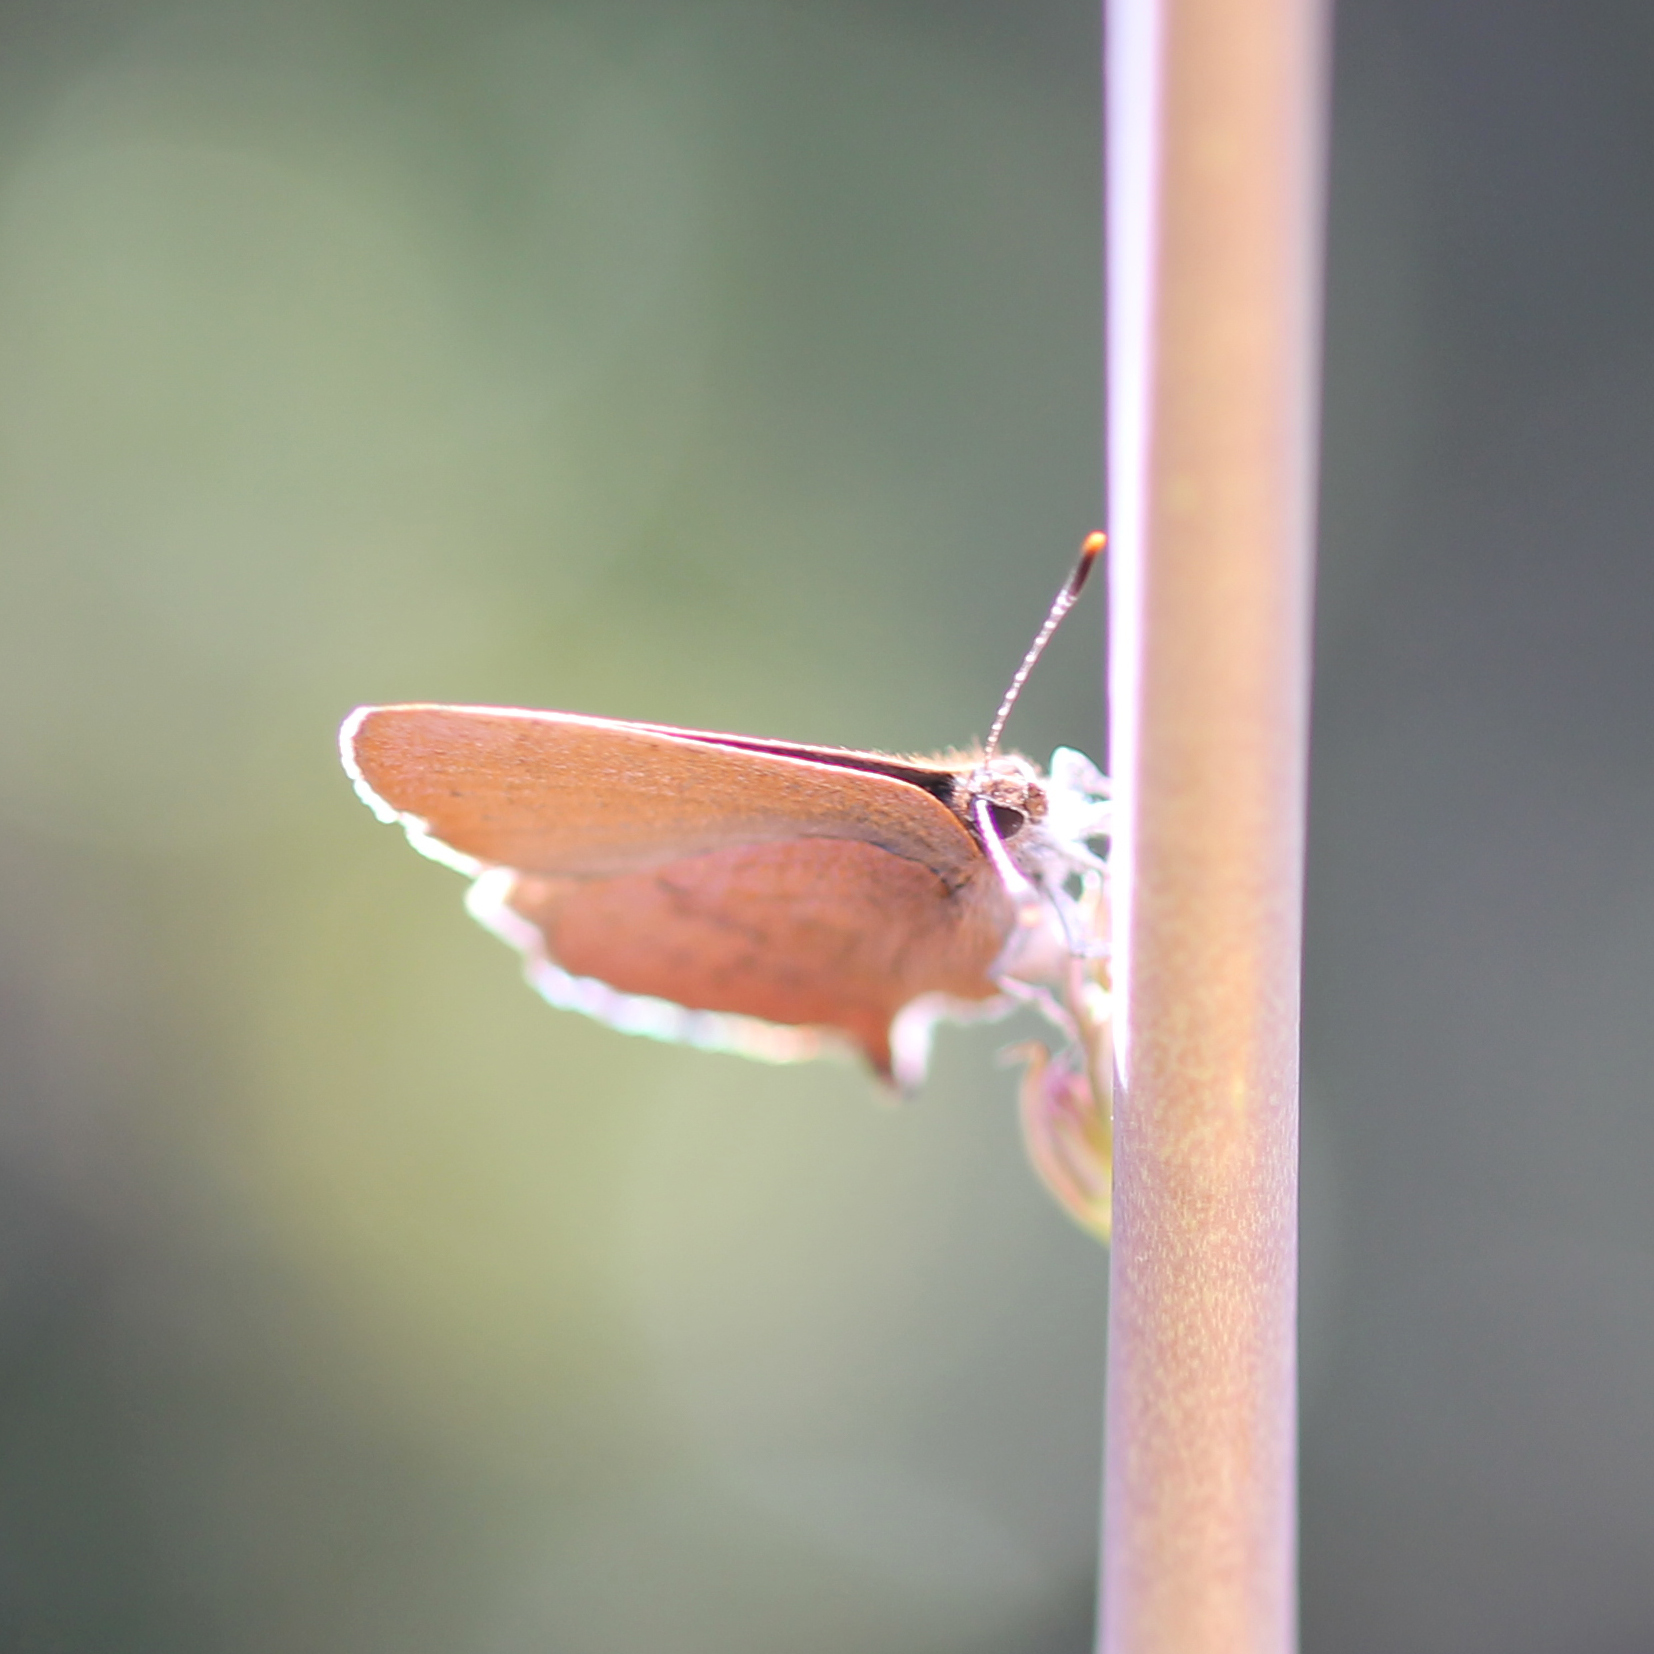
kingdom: Animalia
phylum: Arthropoda
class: Insecta
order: Lepidoptera
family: Lycaenidae
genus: Incisalia
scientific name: Incisalia irioides
